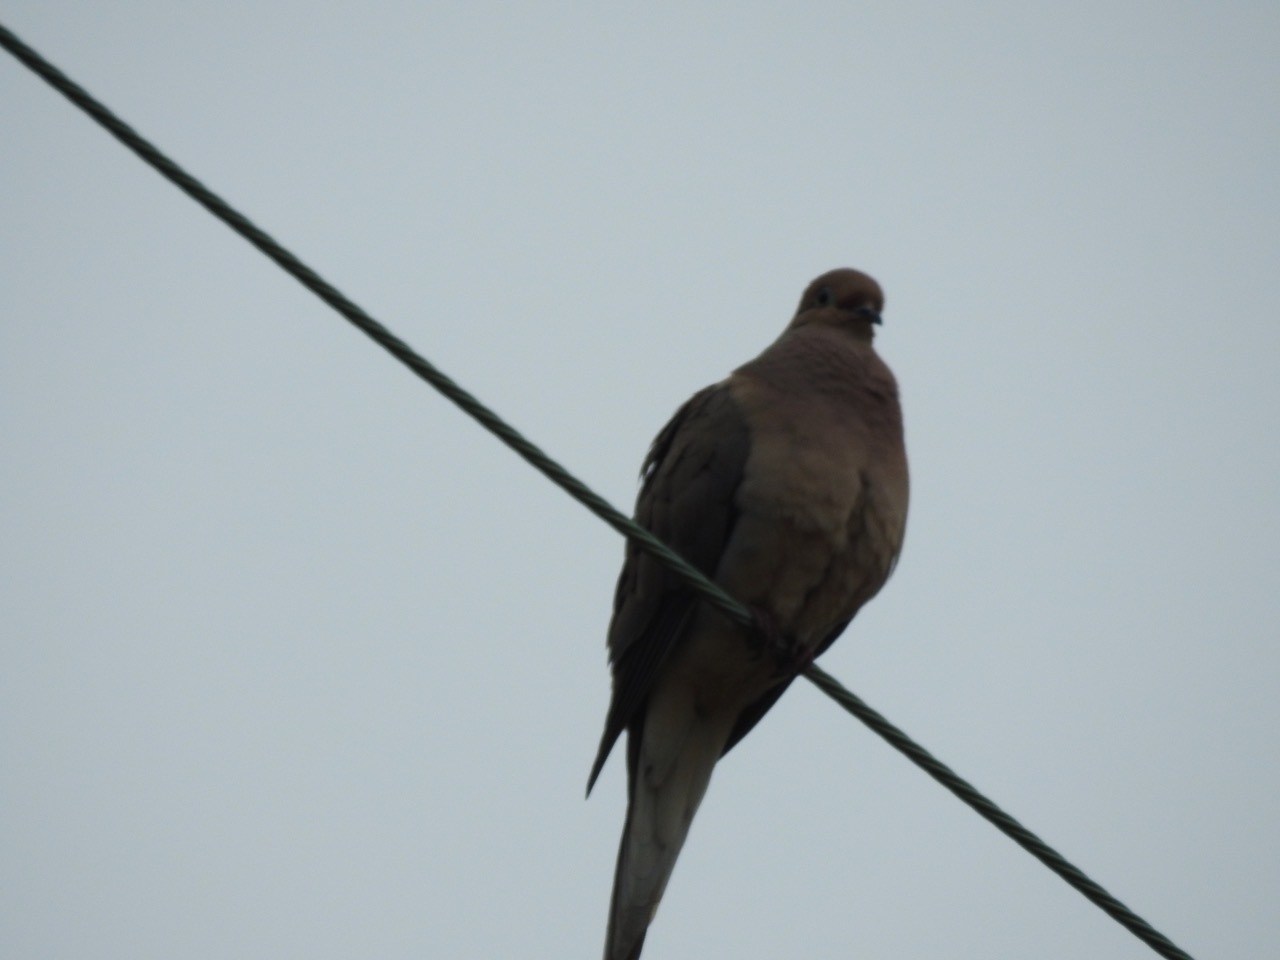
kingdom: Animalia
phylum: Chordata
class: Aves
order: Columbiformes
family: Columbidae
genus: Zenaida
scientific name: Zenaida macroura
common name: Mourning dove
